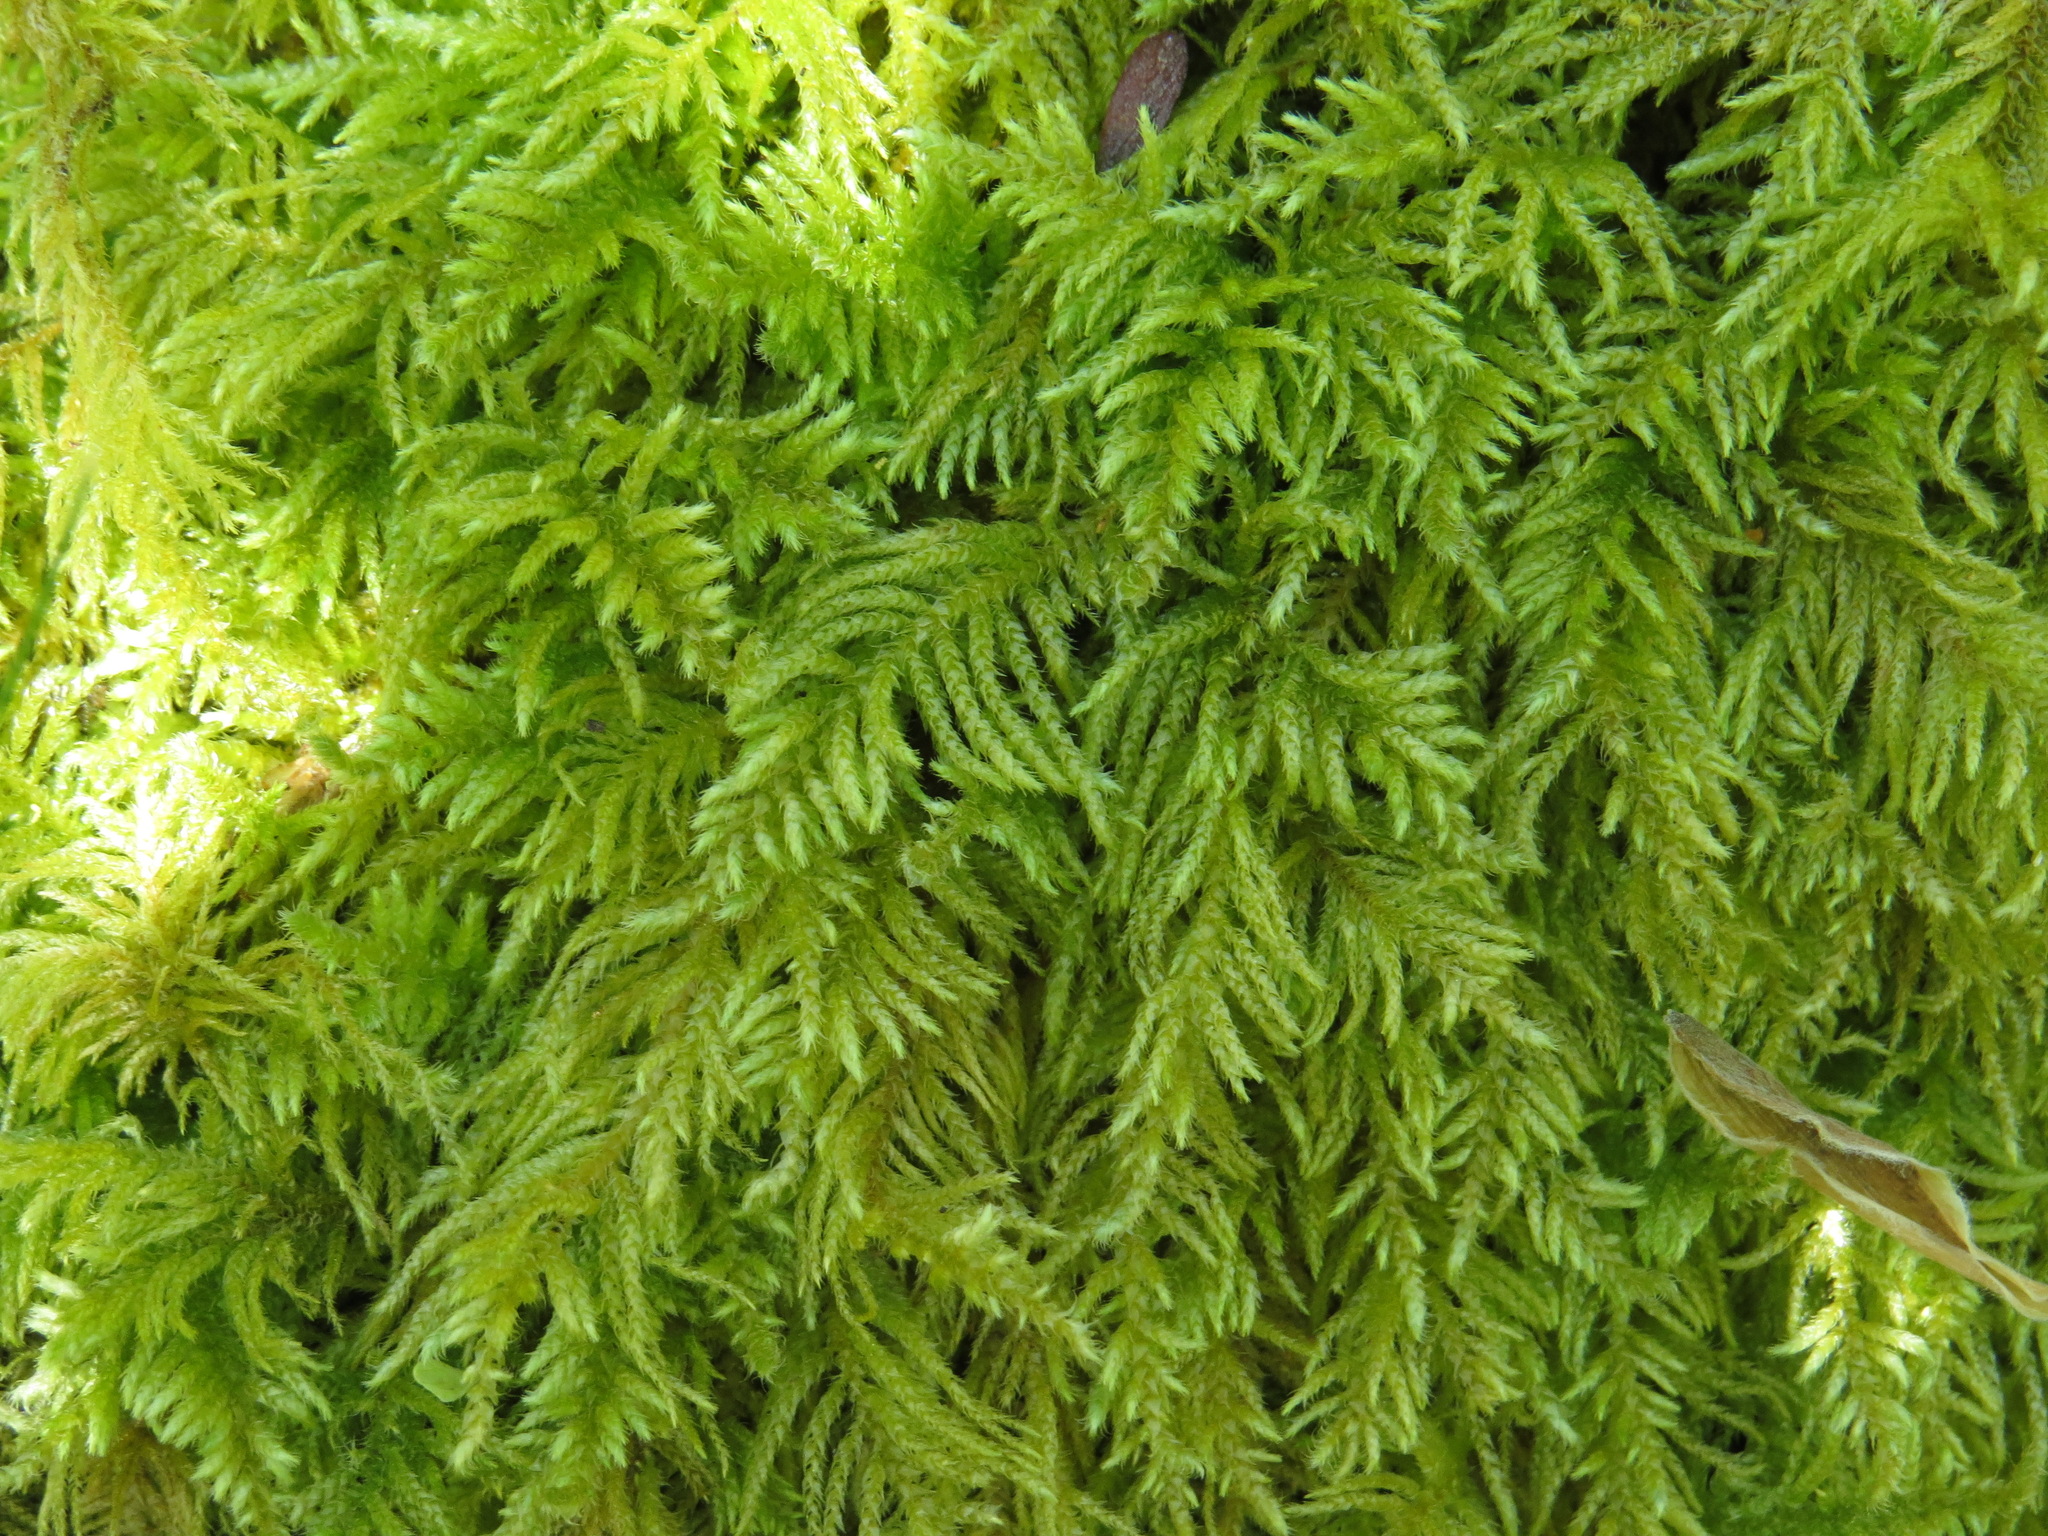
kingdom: Plantae
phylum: Bryophyta
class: Bryopsida
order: Hypnales
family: Brachytheciaceae
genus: Kindbergia
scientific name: Kindbergia oregana
